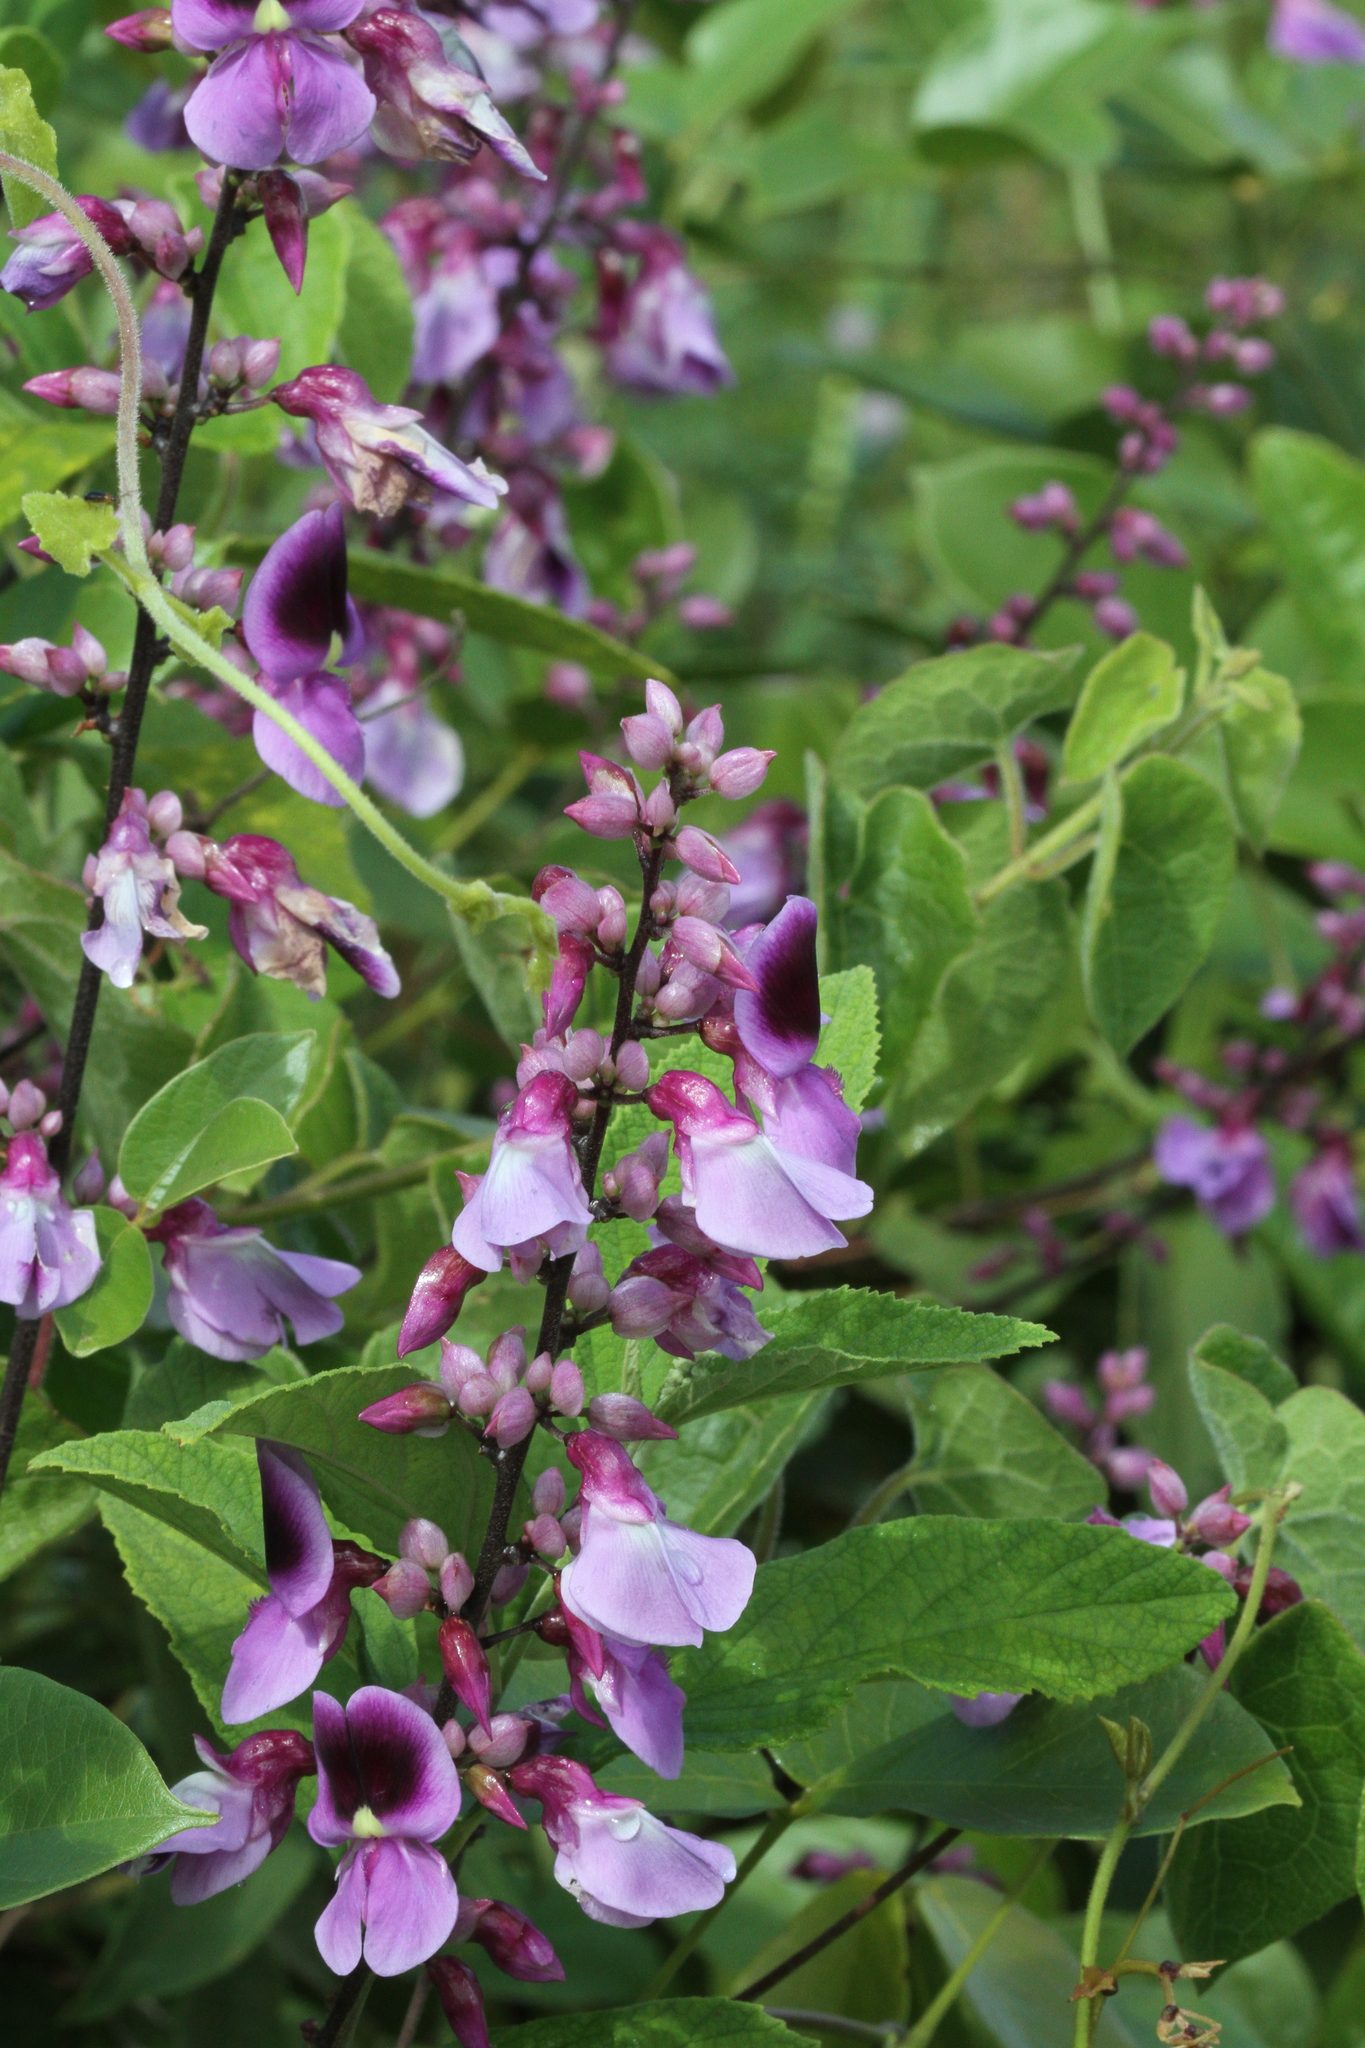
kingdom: Plantae
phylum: Tracheophyta
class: Magnoliopsida
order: Fabales
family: Fabaceae
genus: Dioclea
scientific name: Dioclea virgata
